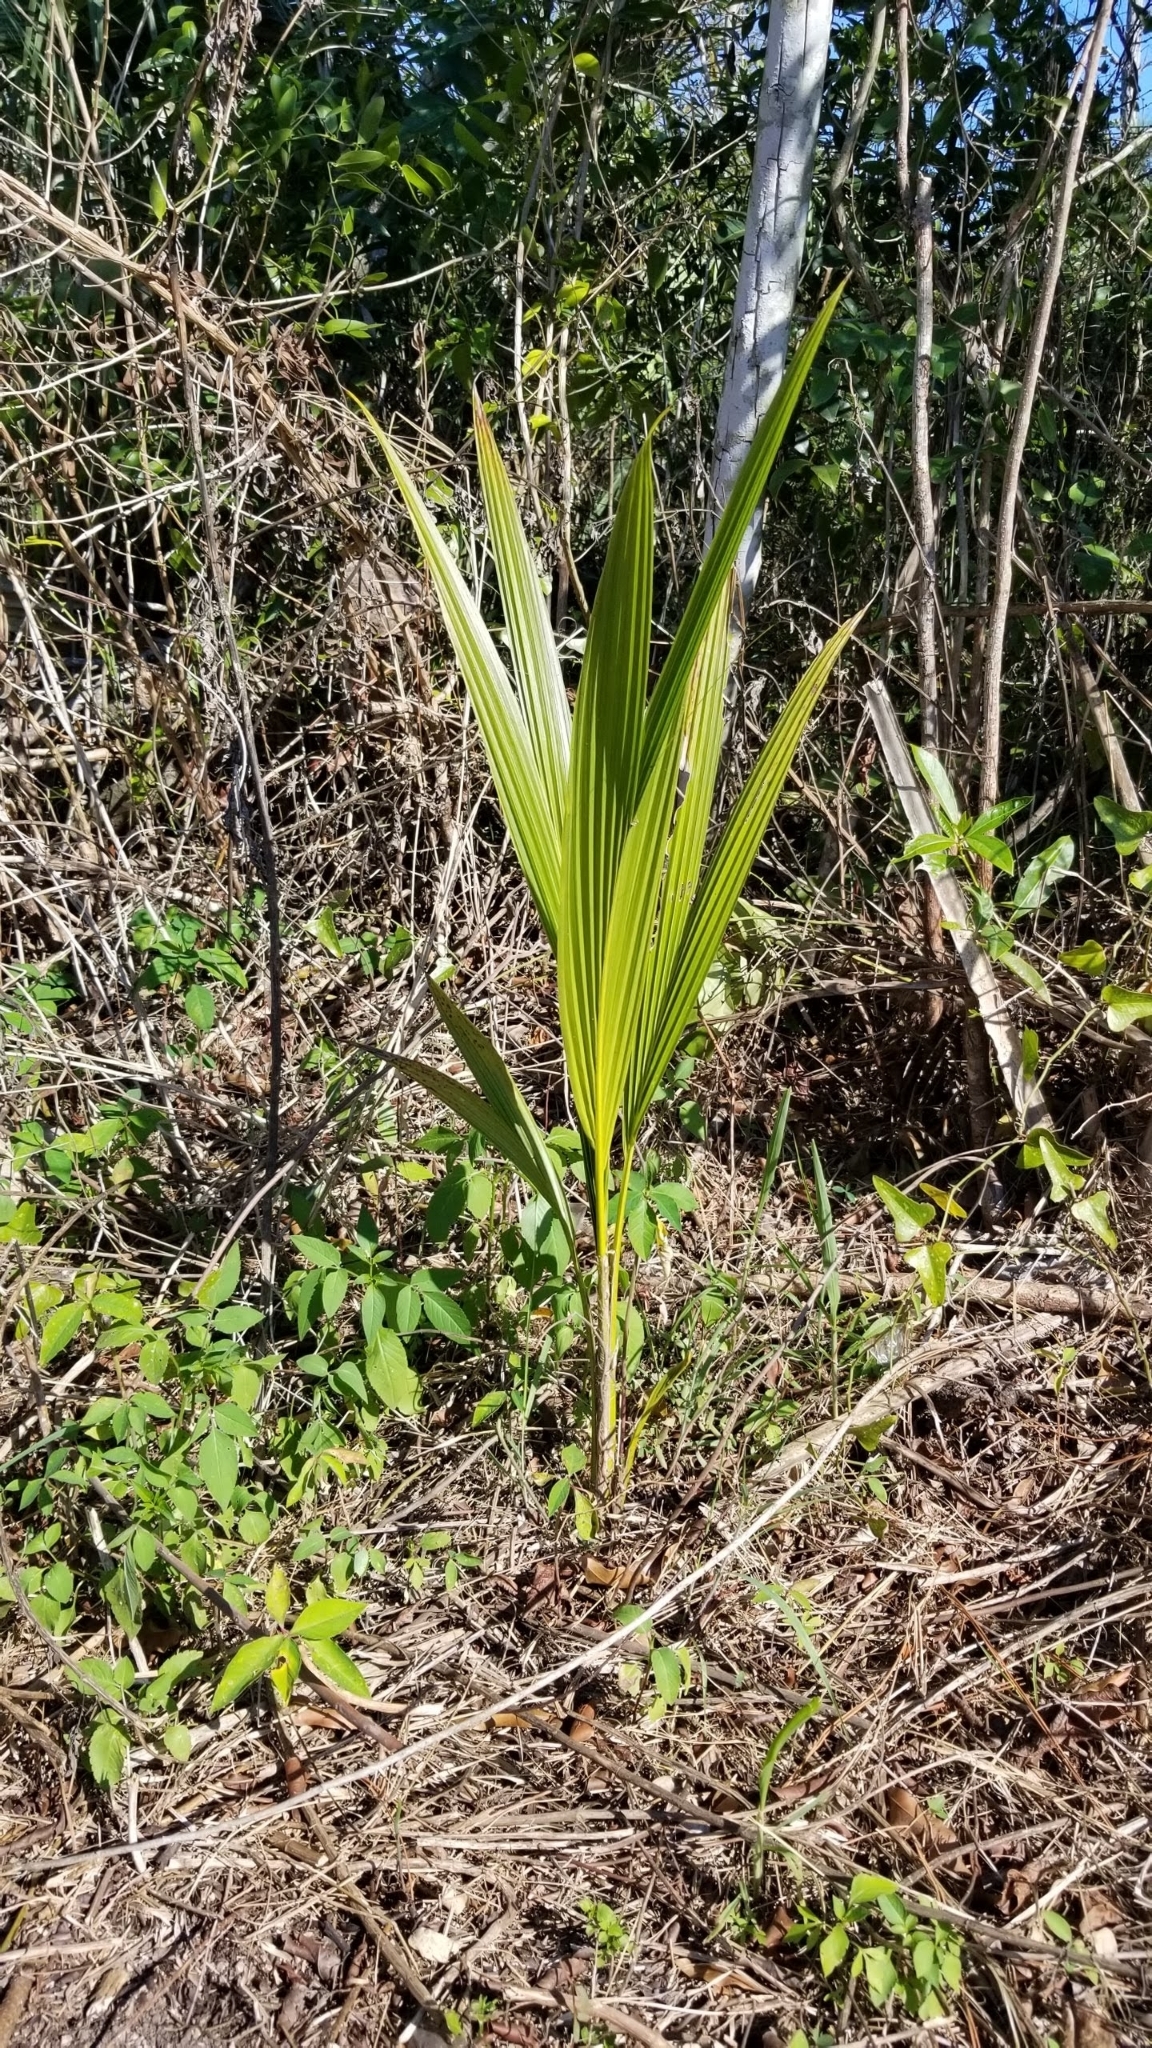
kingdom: Plantae
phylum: Tracheophyta
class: Liliopsida
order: Arecales
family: Arecaceae
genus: Cocos
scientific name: Cocos nucifera
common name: Coconut palm
